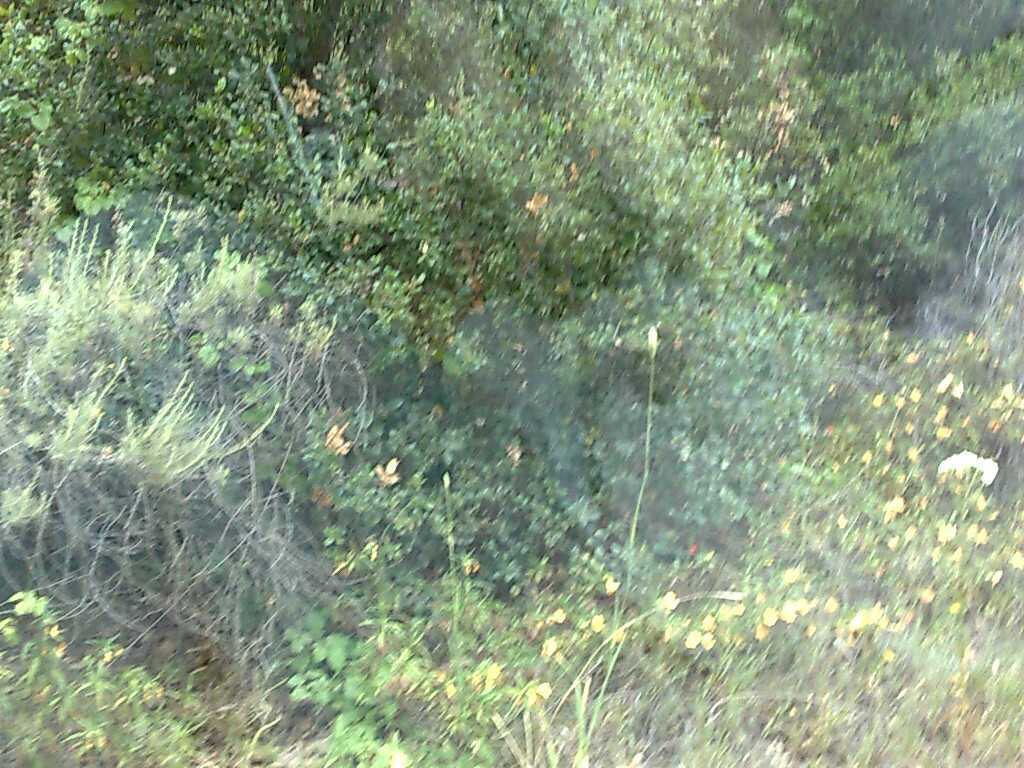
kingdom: Plantae
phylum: Tracheophyta
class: Magnoliopsida
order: Fagales
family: Fagaceae
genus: Quercus
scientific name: Quercus agrifolia
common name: California live oak
